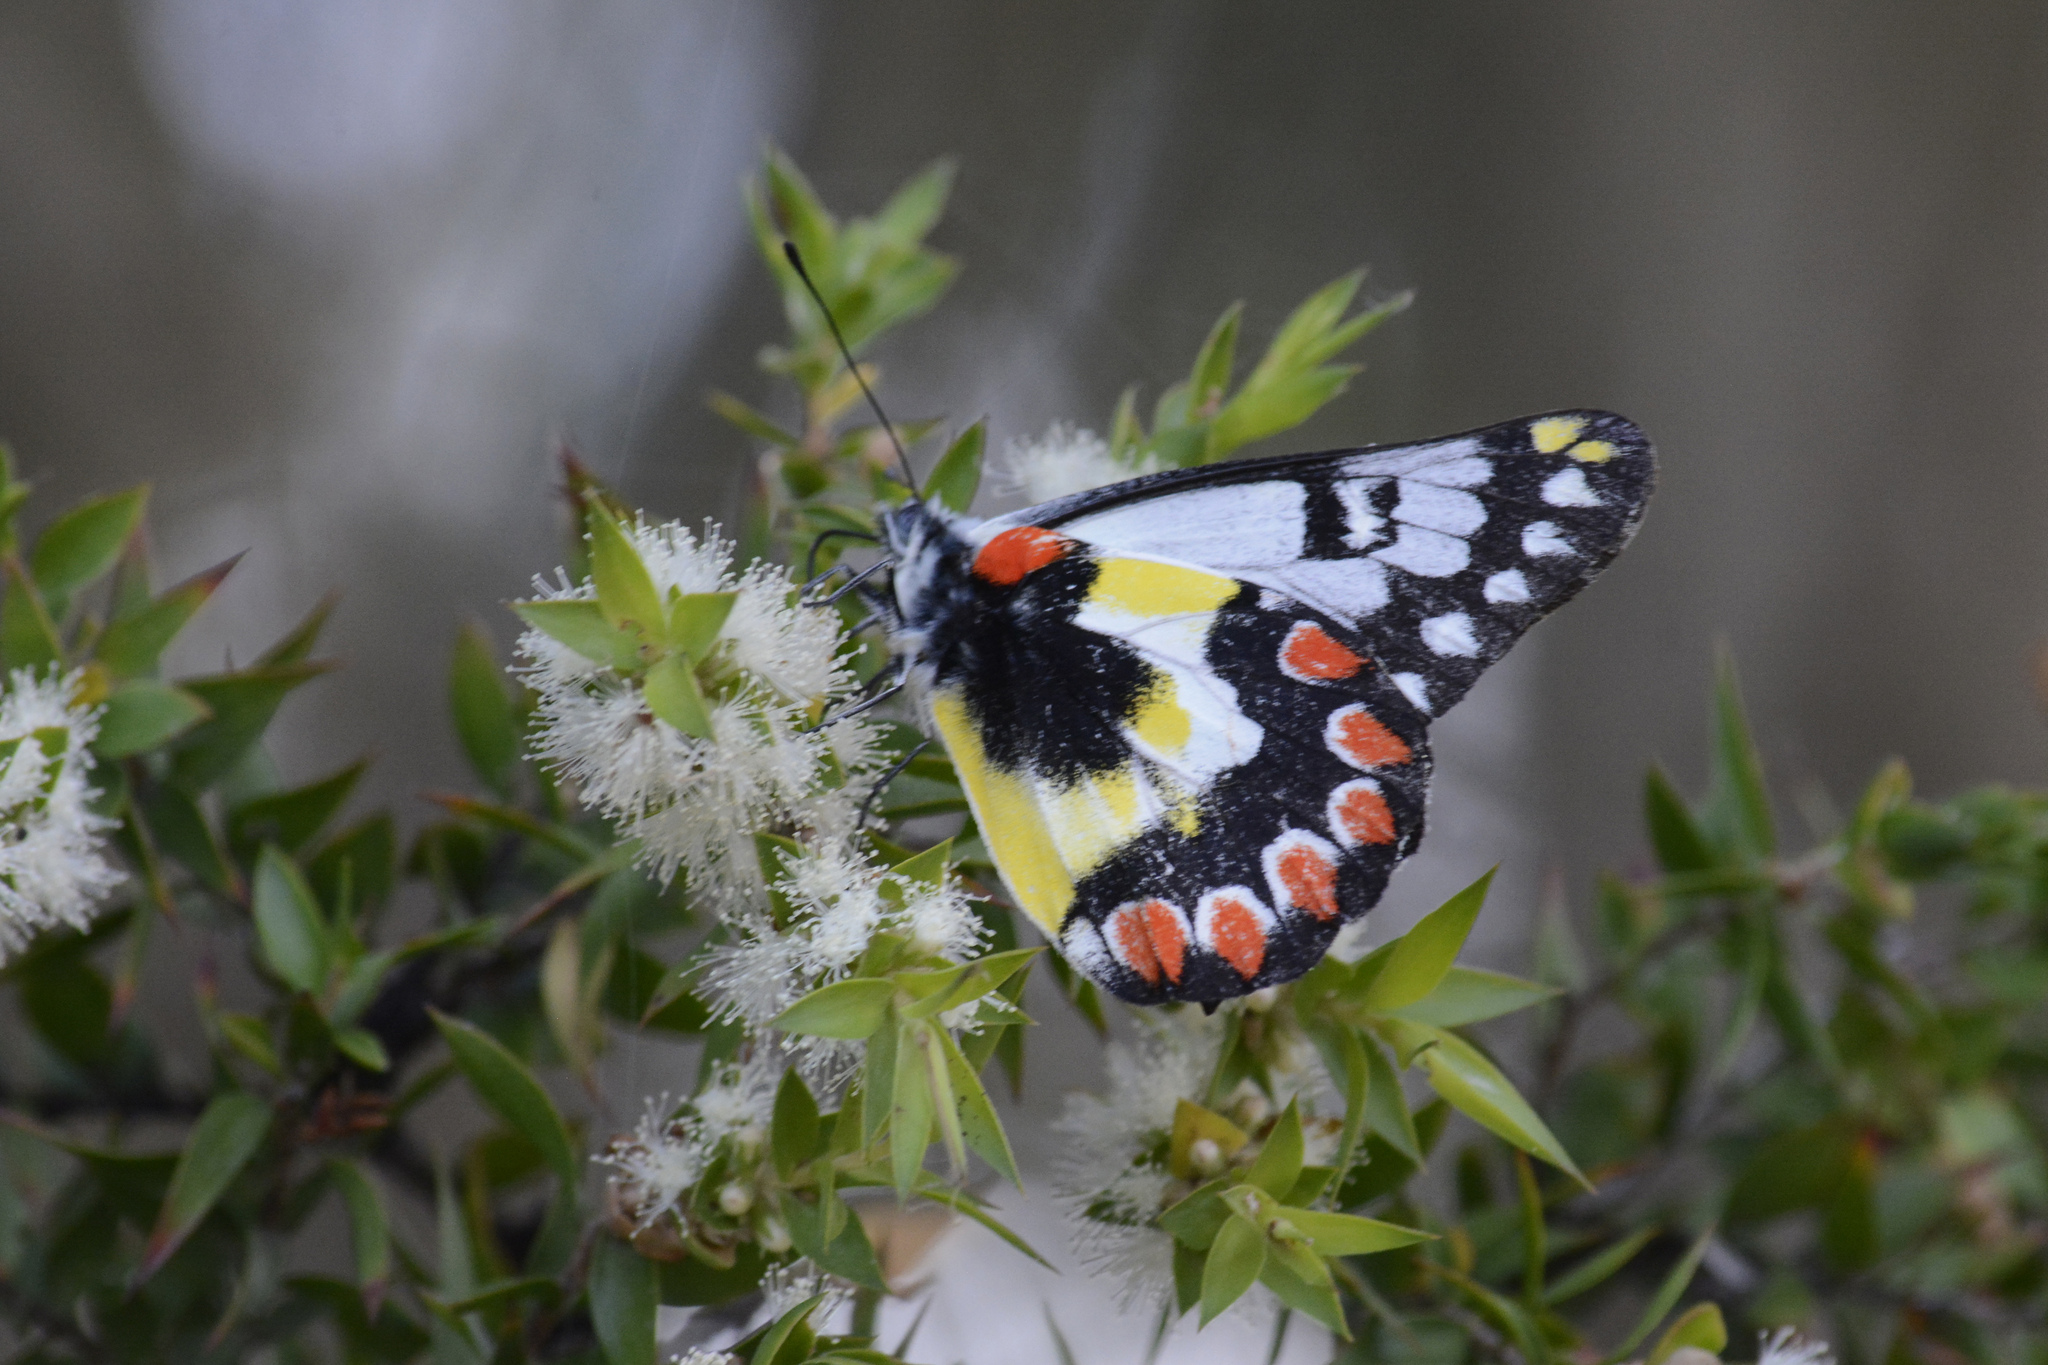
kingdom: Animalia
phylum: Arthropoda
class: Insecta
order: Lepidoptera
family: Pieridae
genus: Delias
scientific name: Delias aganippe
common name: Red-spotted jezebel
